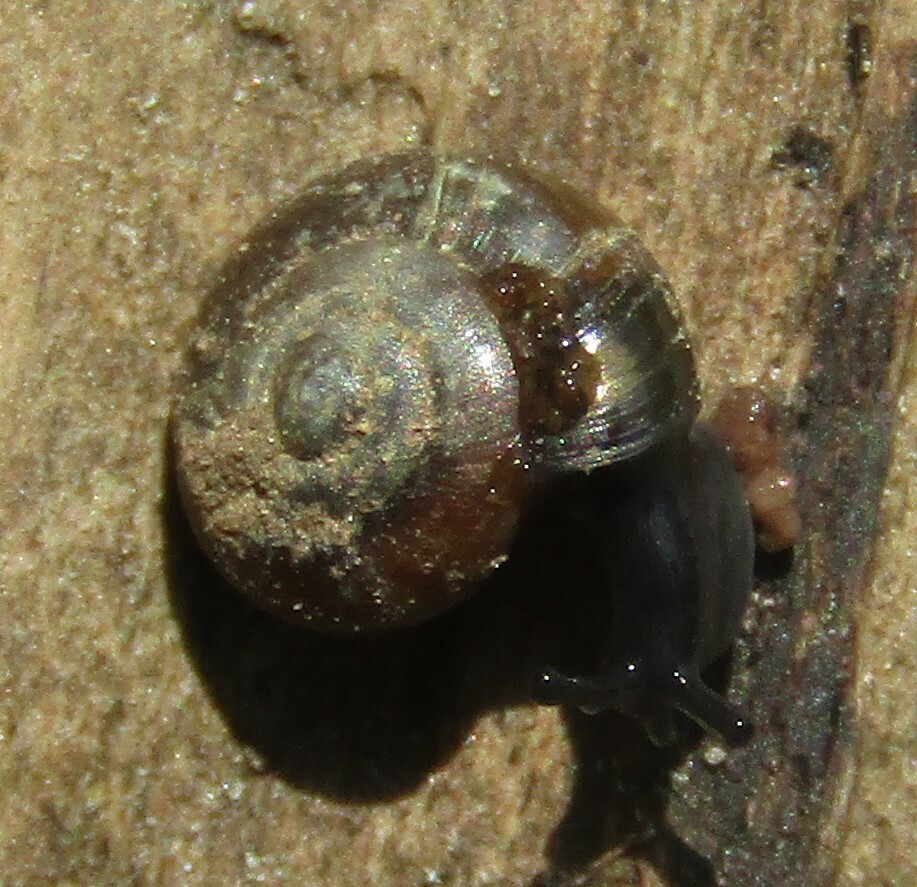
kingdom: Animalia
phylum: Mollusca
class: Gastropoda
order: Stylommatophora
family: Gastrodontidae
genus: Zonitoides
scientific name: Zonitoides nitidus
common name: Shiny glass snail
